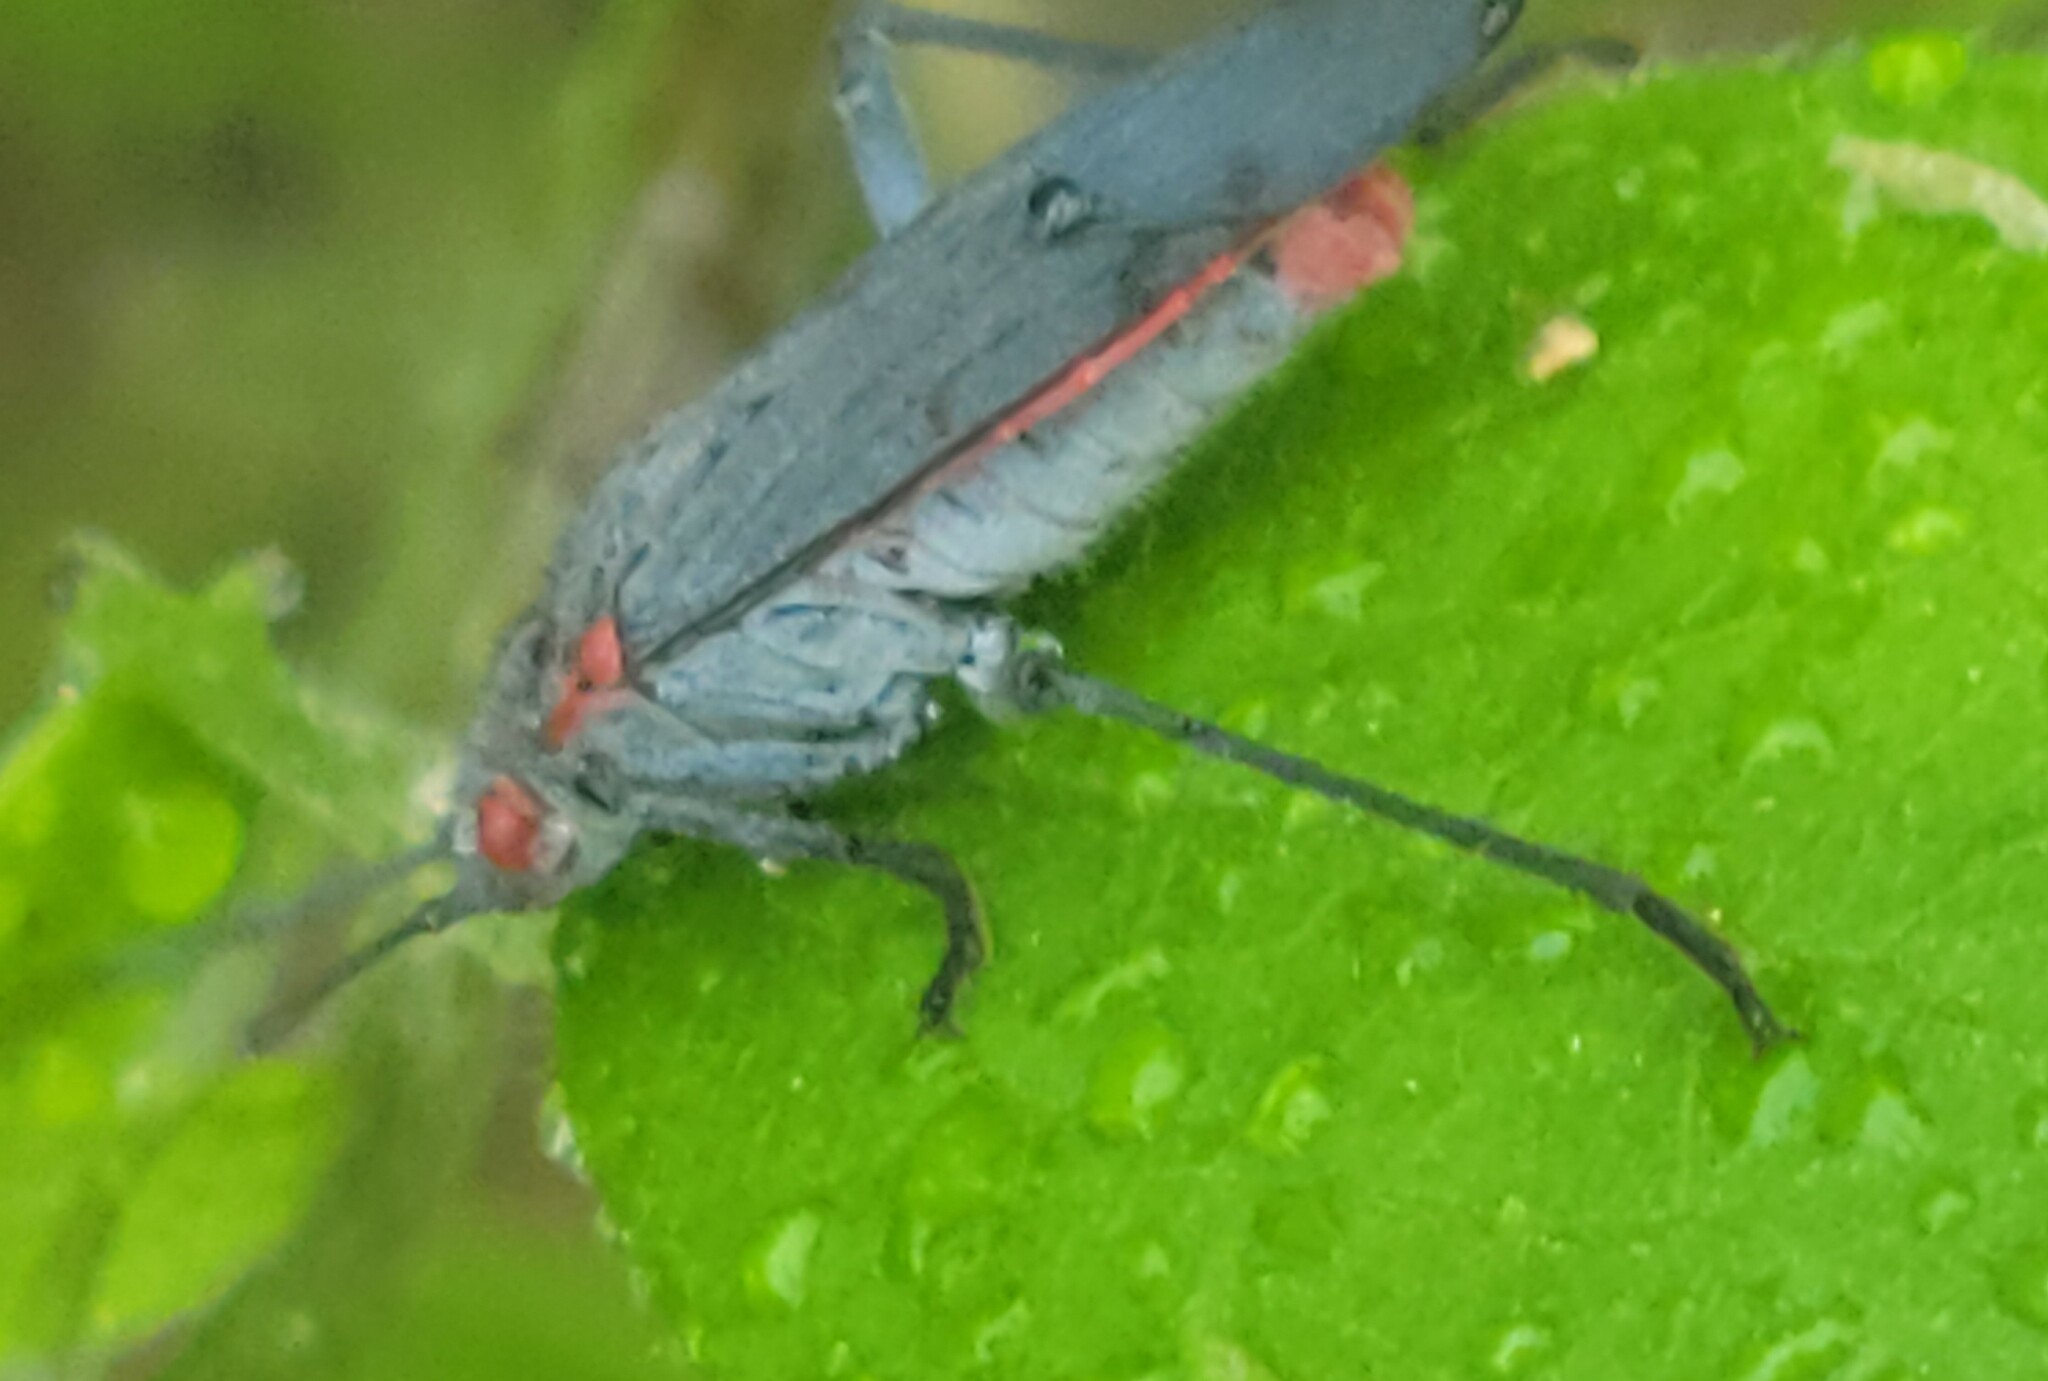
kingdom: Animalia
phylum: Arthropoda
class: Insecta
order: Hemiptera
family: Rhopalidae
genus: Jadera
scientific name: Jadera haematoloma
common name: Red-shouldered bug
